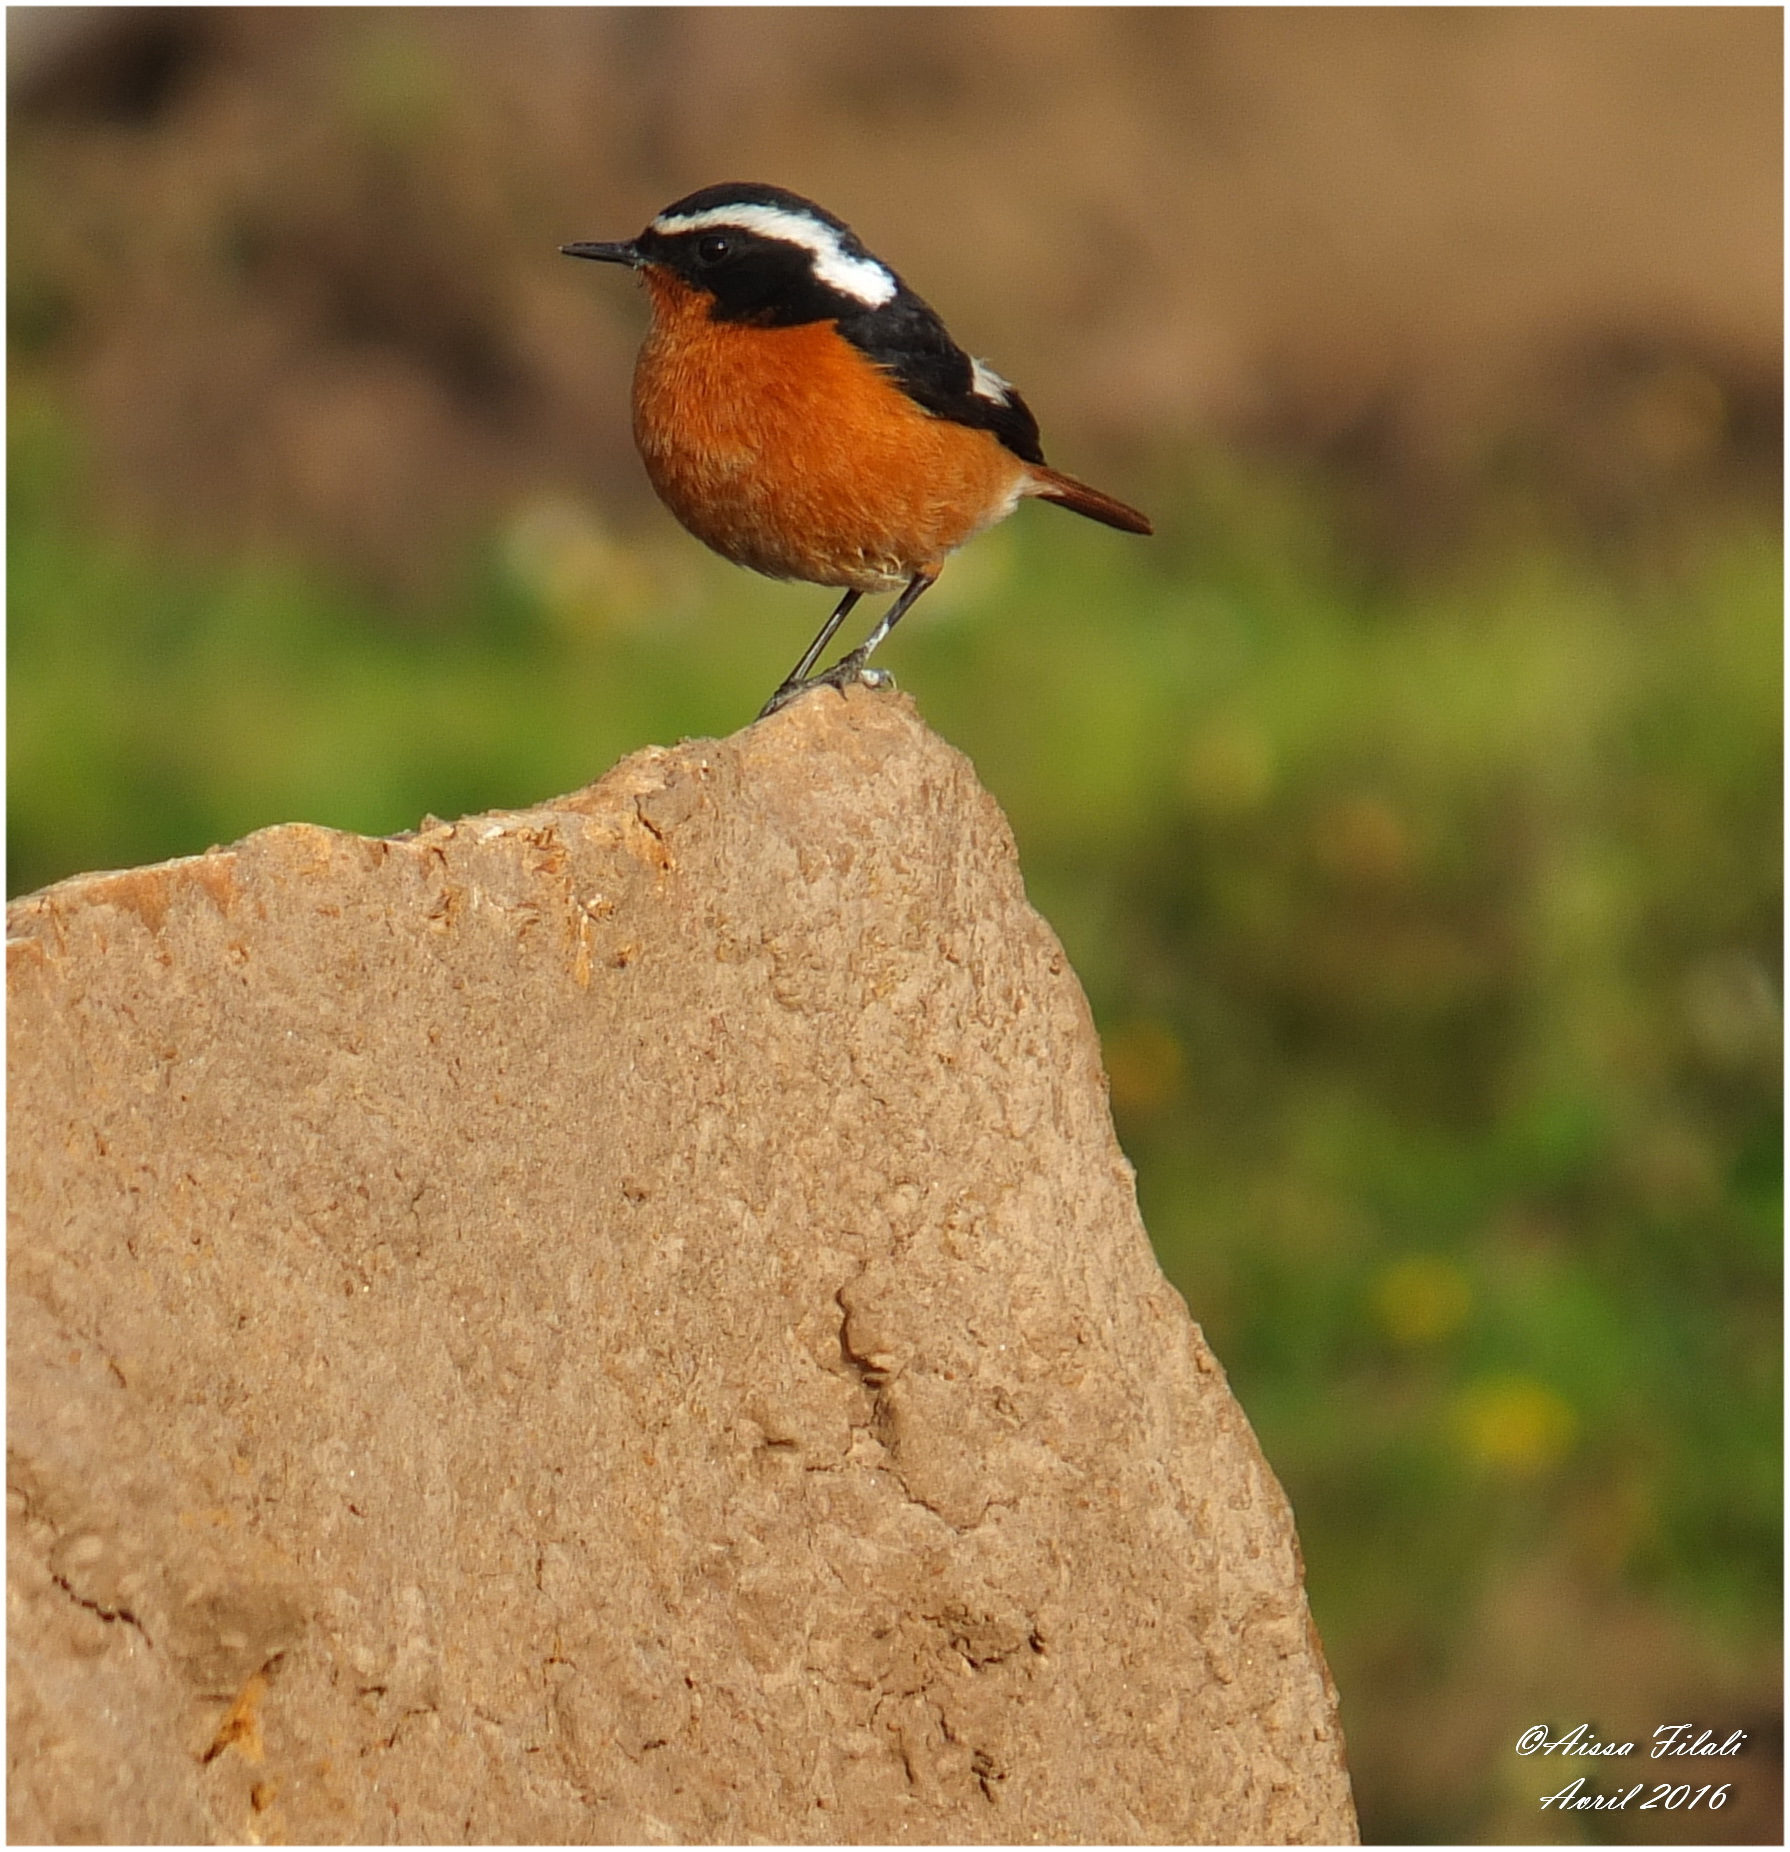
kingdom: Animalia
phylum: Chordata
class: Aves
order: Passeriformes
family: Muscicapidae
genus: Phoenicurus
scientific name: Phoenicurus moussieri
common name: Moussier's redstart
